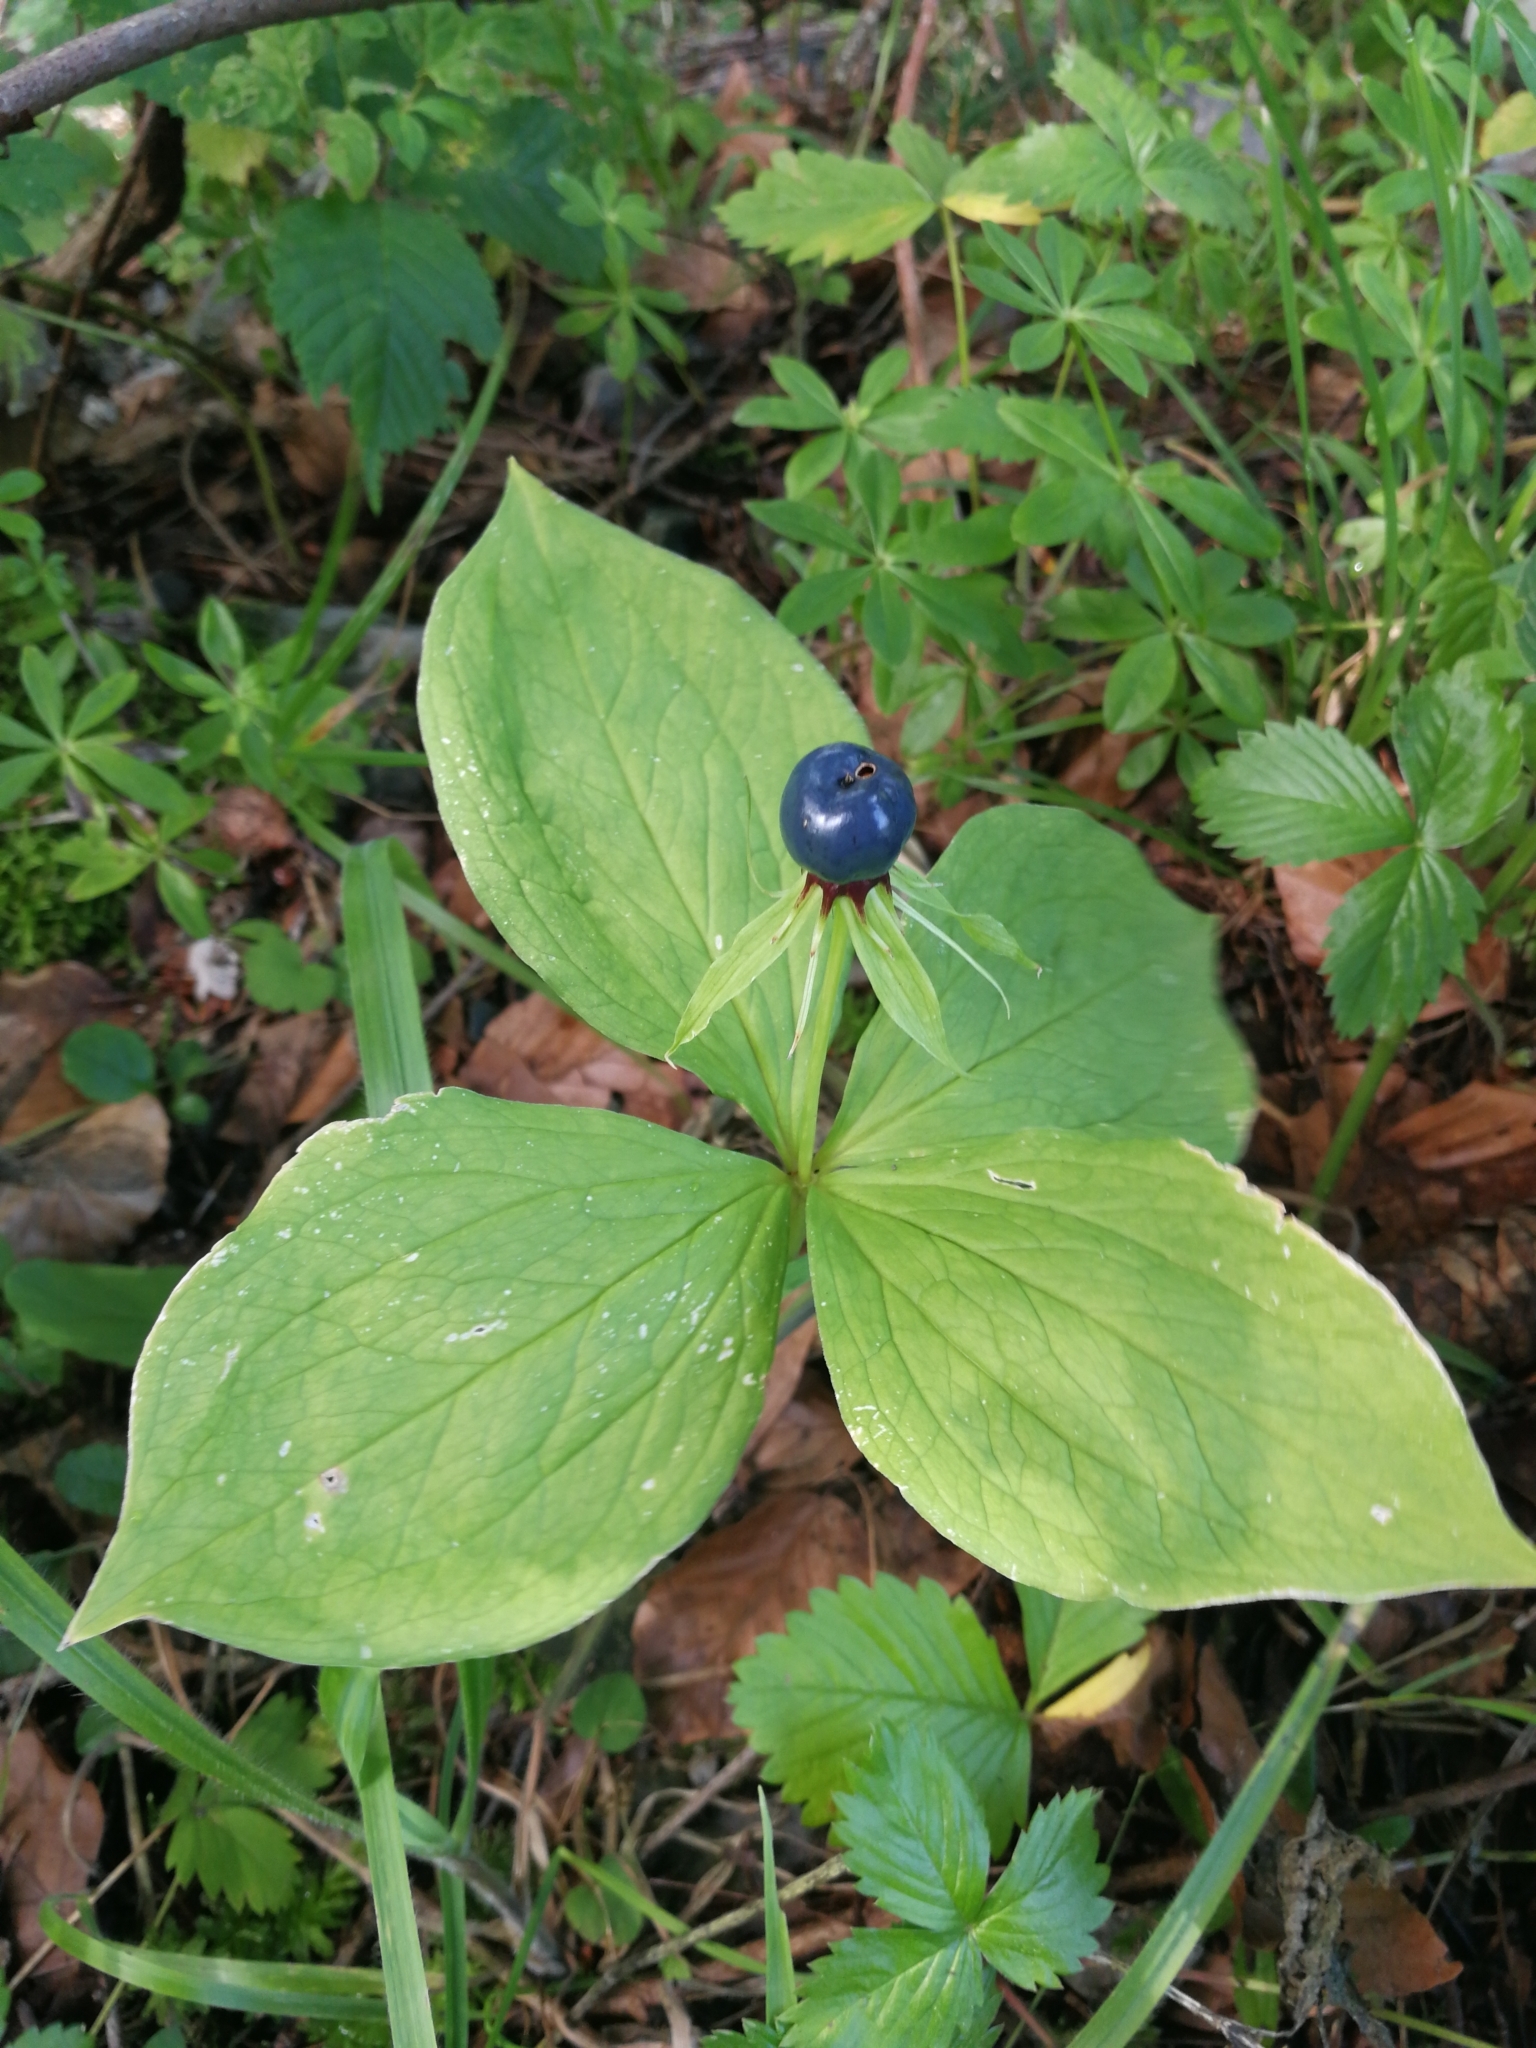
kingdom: Plantae
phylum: Tracheophyta
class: Liliopsida
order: Liliales
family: Melanthiaceae
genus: Paris
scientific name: Paris quadrifolia
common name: Herb-paris
